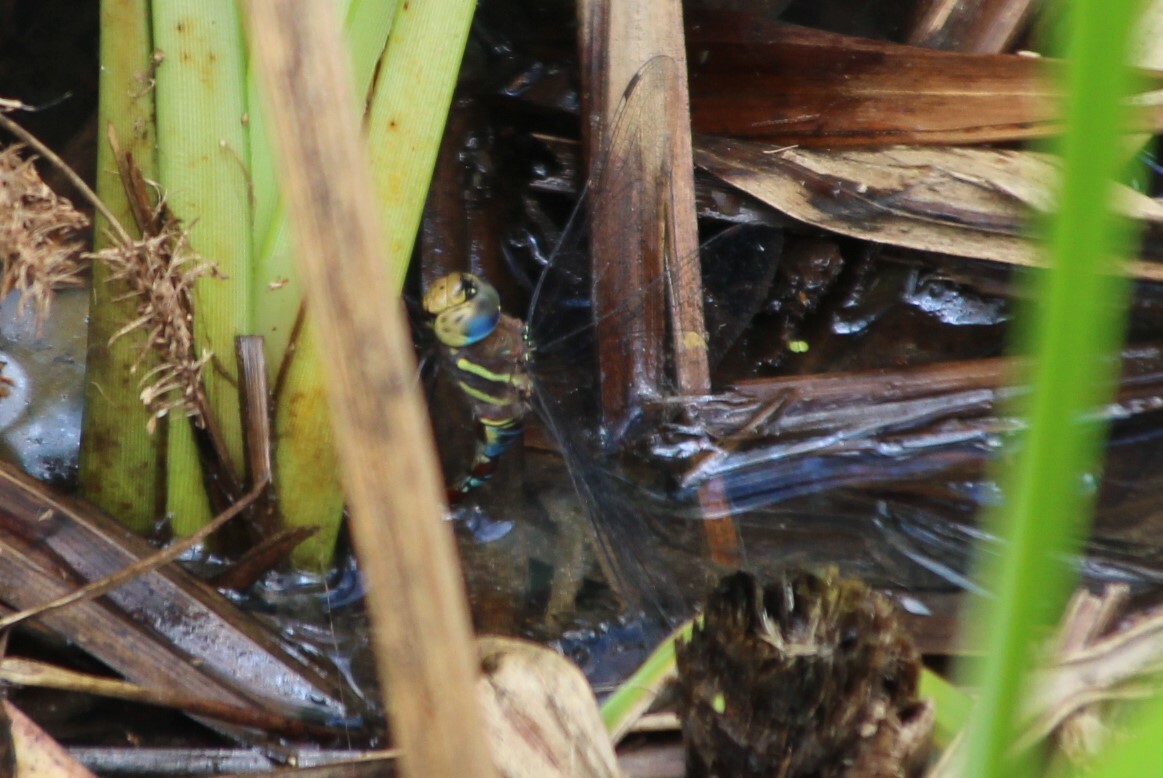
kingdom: Animalia
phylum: Arthropoda
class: Insecta
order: Odonata
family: Aeshnidae
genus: Anaciaeschna
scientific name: Anaciaeschna triangulifera
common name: Evening hawker
